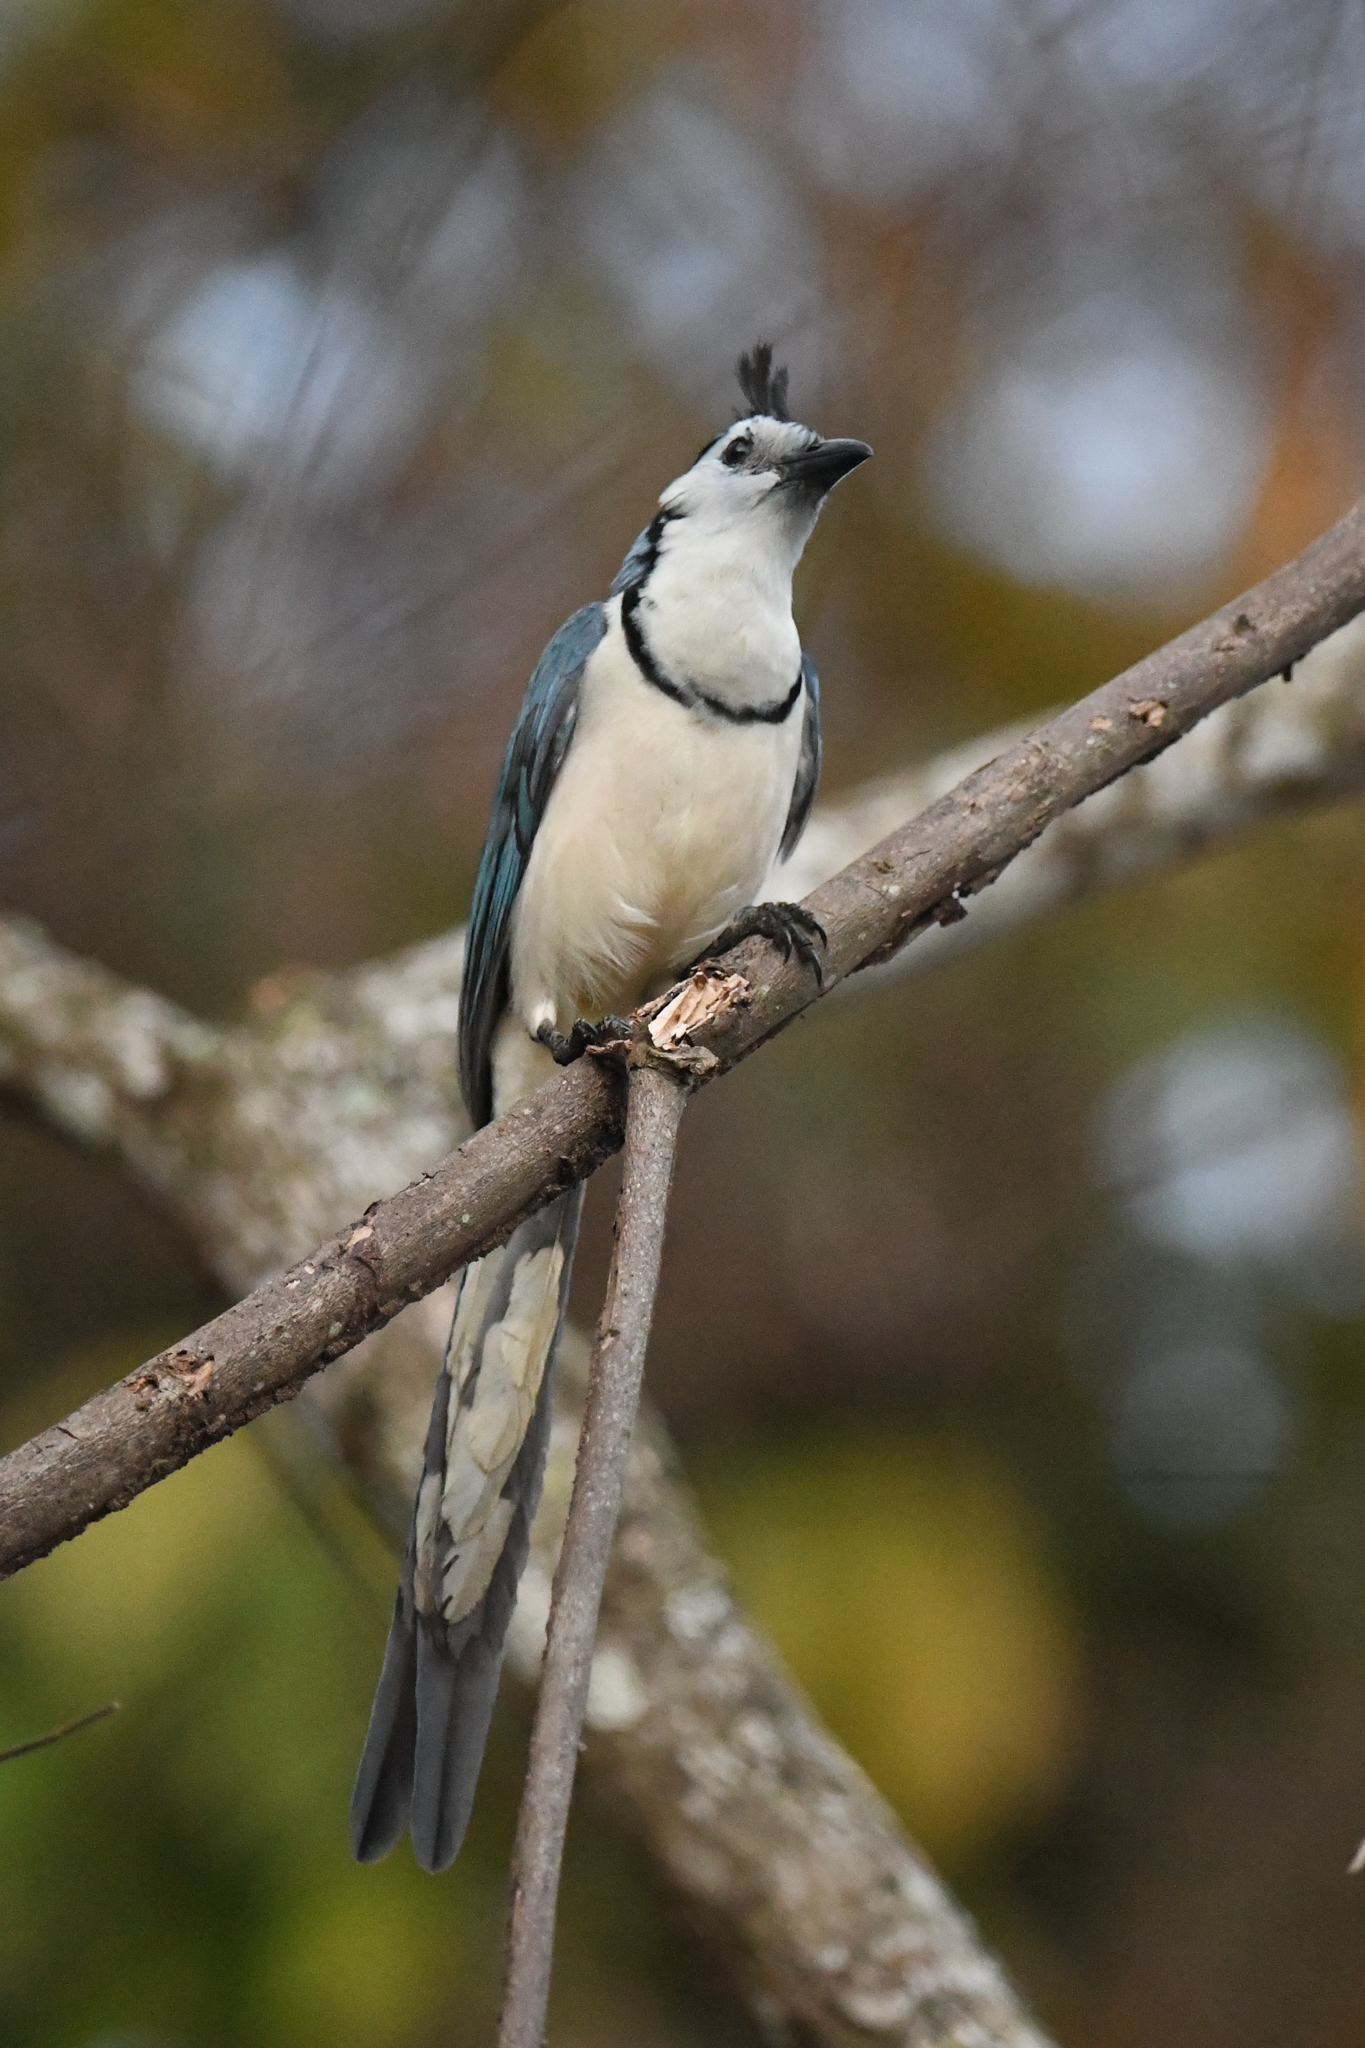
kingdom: Animalia
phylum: Chordata
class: Aves
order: Passeriformes
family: Corvidae
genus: Calocitta
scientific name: Calocitta formosa
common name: White-throated magpie-jay
